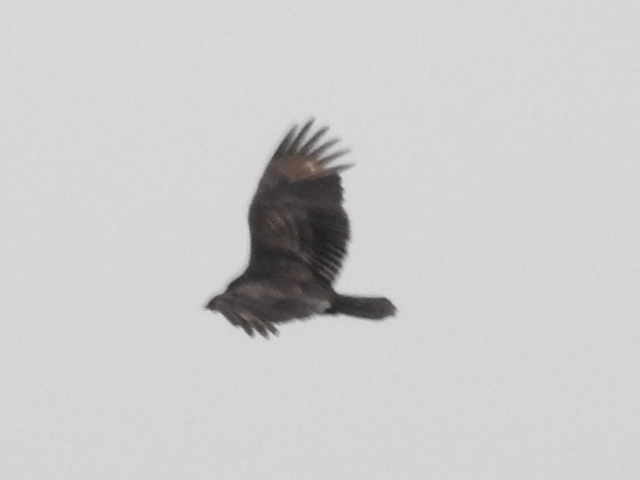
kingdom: Animalia
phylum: Chordata
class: Aves
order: Accipitriformes
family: Cathartidae
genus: Cathartes
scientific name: Cathartes aura
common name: Turkey vulture
